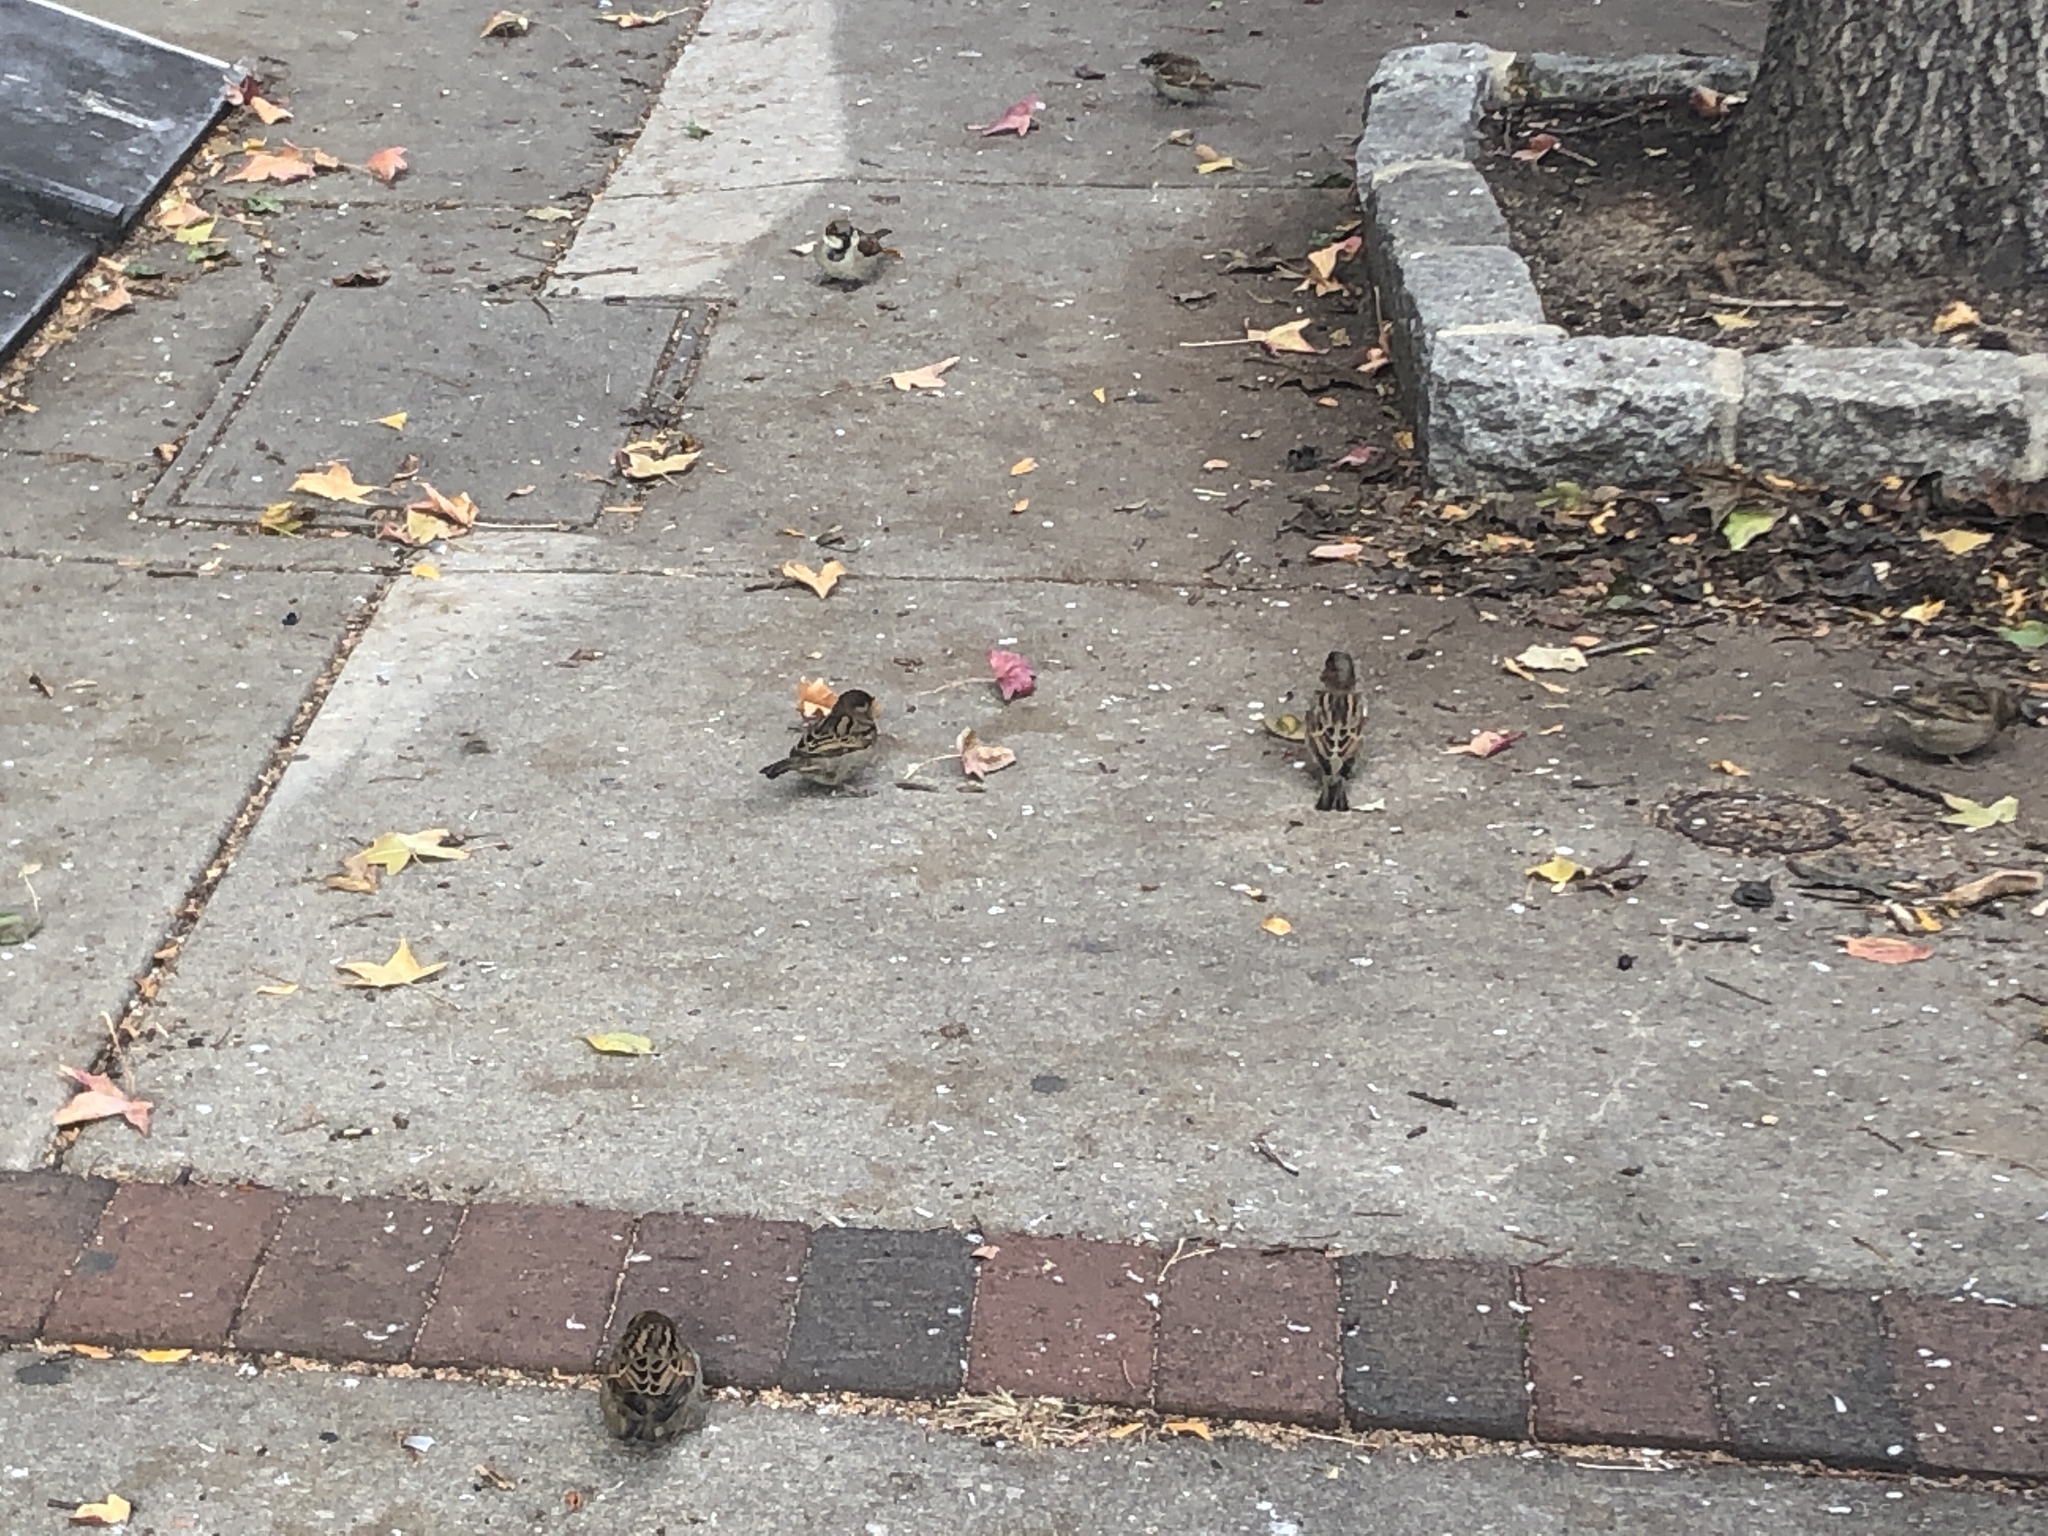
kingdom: Animalia
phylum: Chordata
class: Aves
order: Passeriformes
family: Passeridae
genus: Passer
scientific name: Passer domesticus
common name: House sparrow
